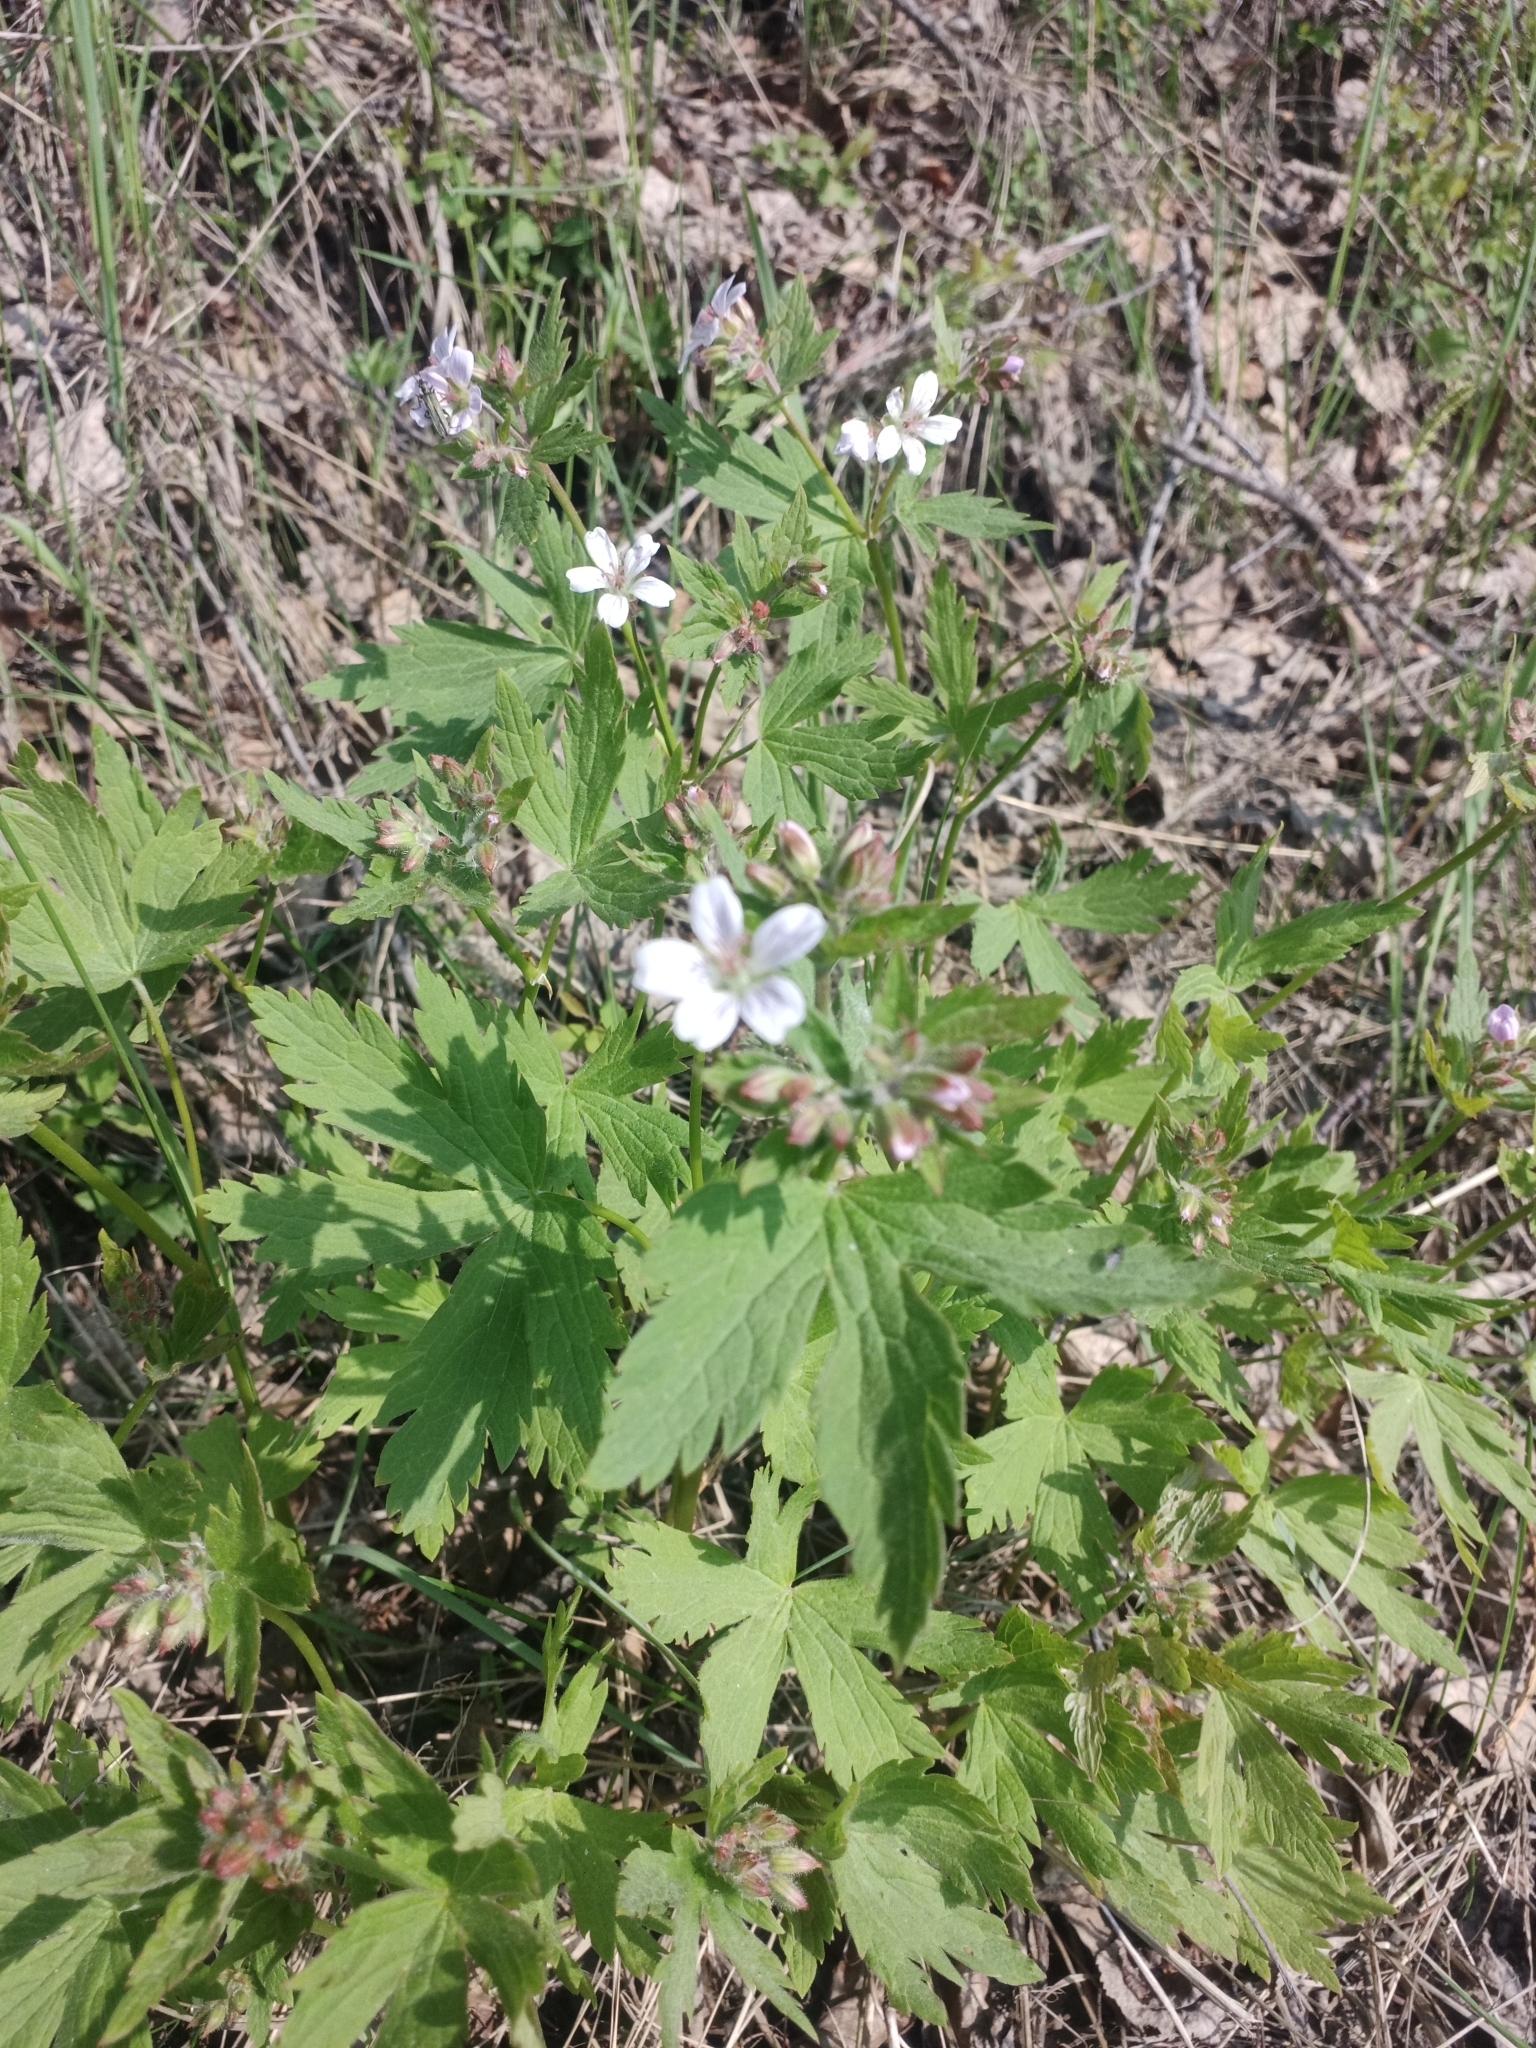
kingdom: Plantae
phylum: Tracheophyta
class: Magnoliopsida
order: Geraniales
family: Geraniaceae
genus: Geranium
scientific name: Geranium sylvaticum
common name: Wood crane's-bill
